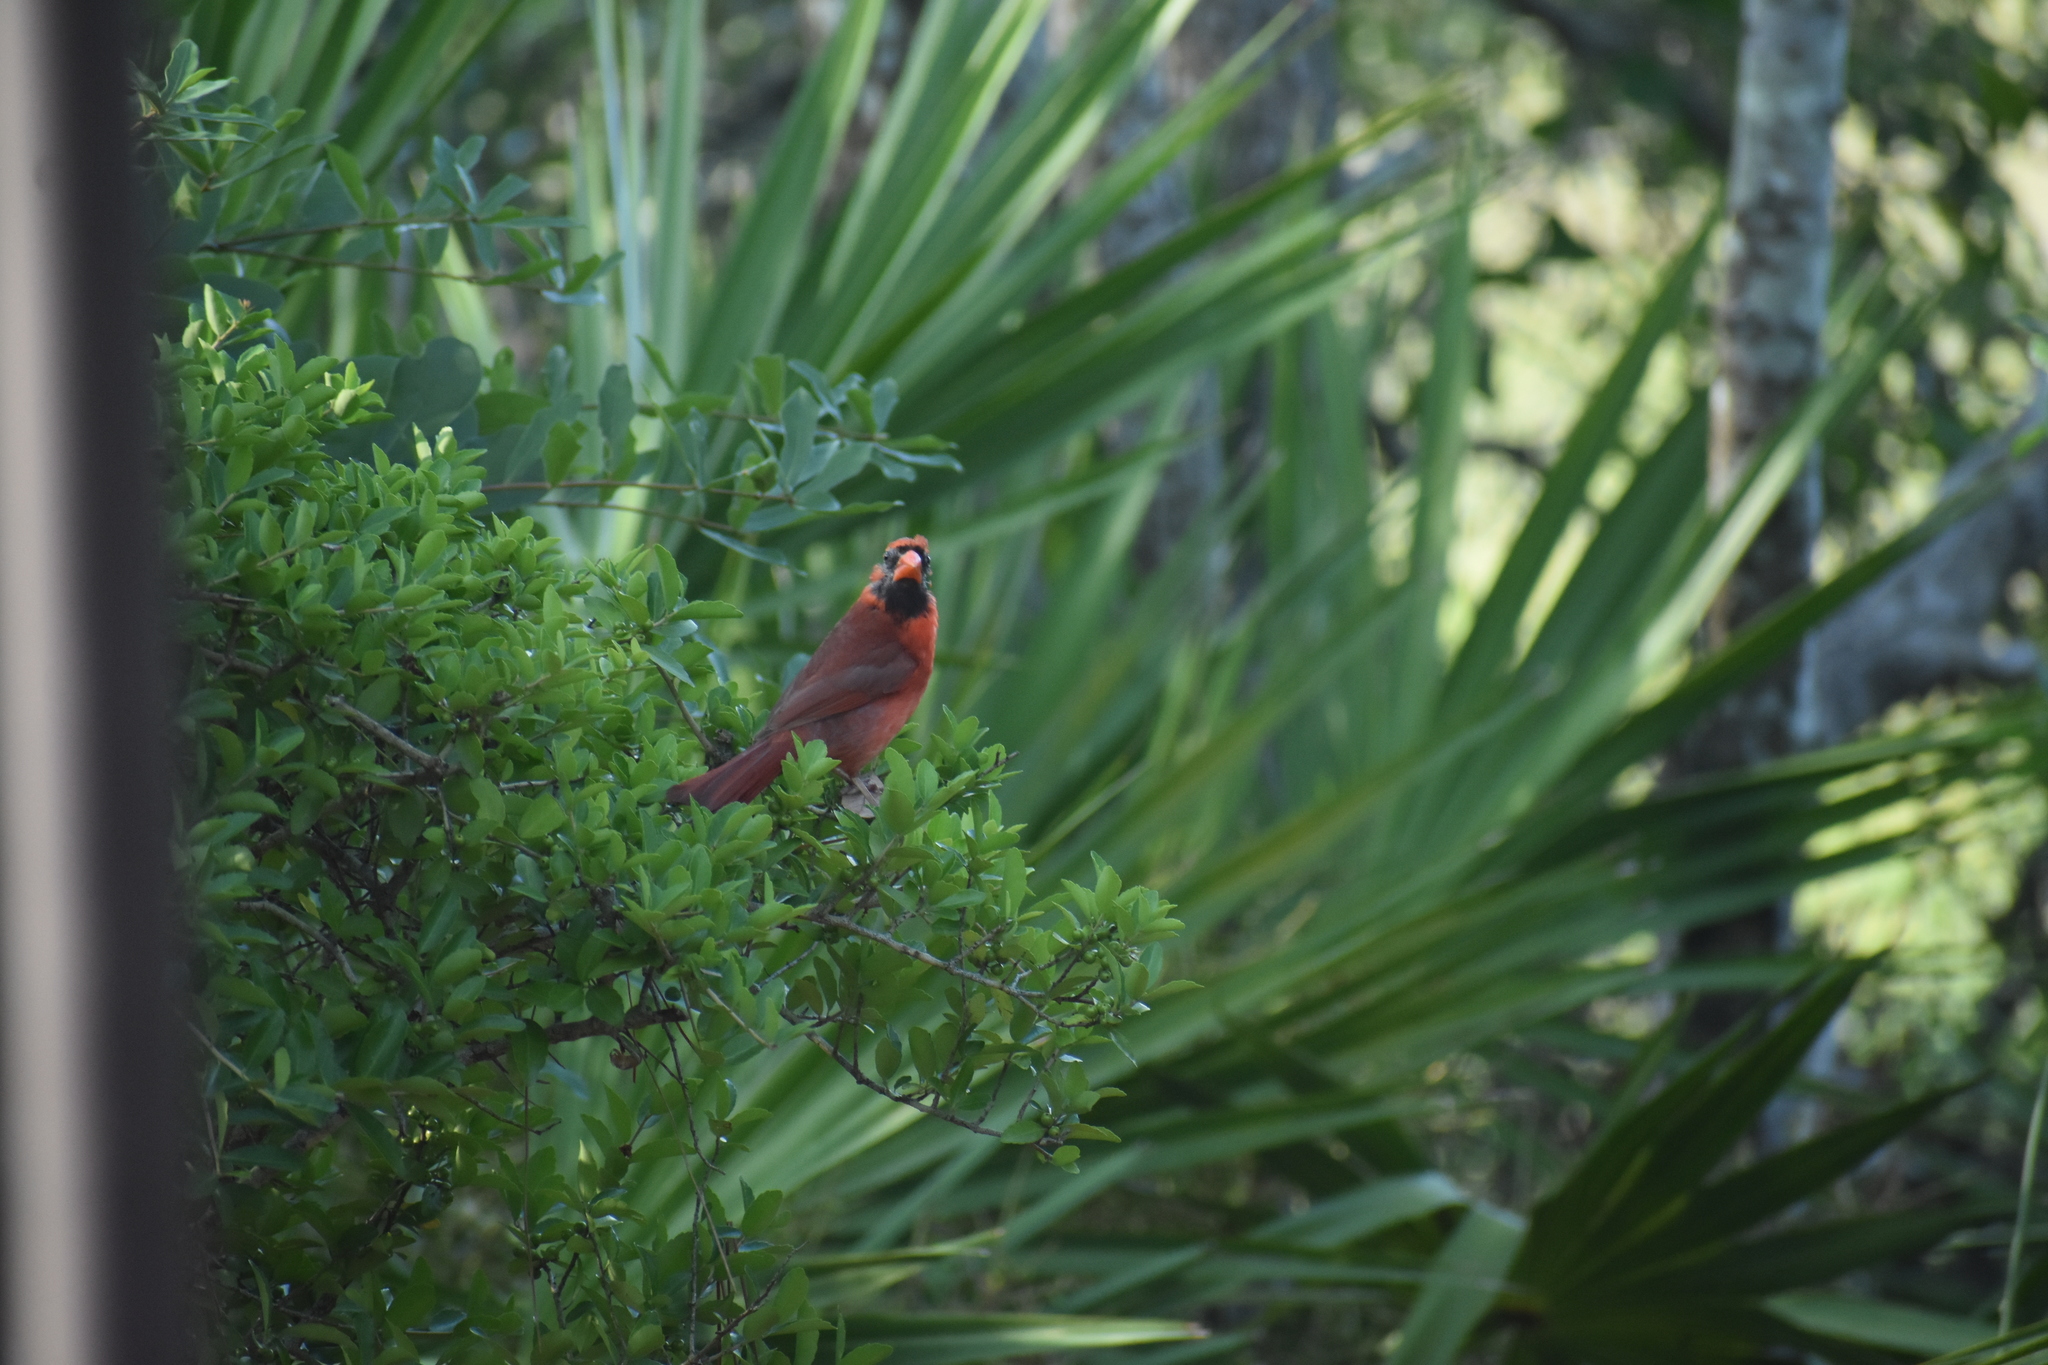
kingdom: Animalia
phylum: Chordata
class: Aves
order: Passeriformes
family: Cardinalidae
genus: Cardinalis
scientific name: Cardinalis cardinalis
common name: Northern cardinal
